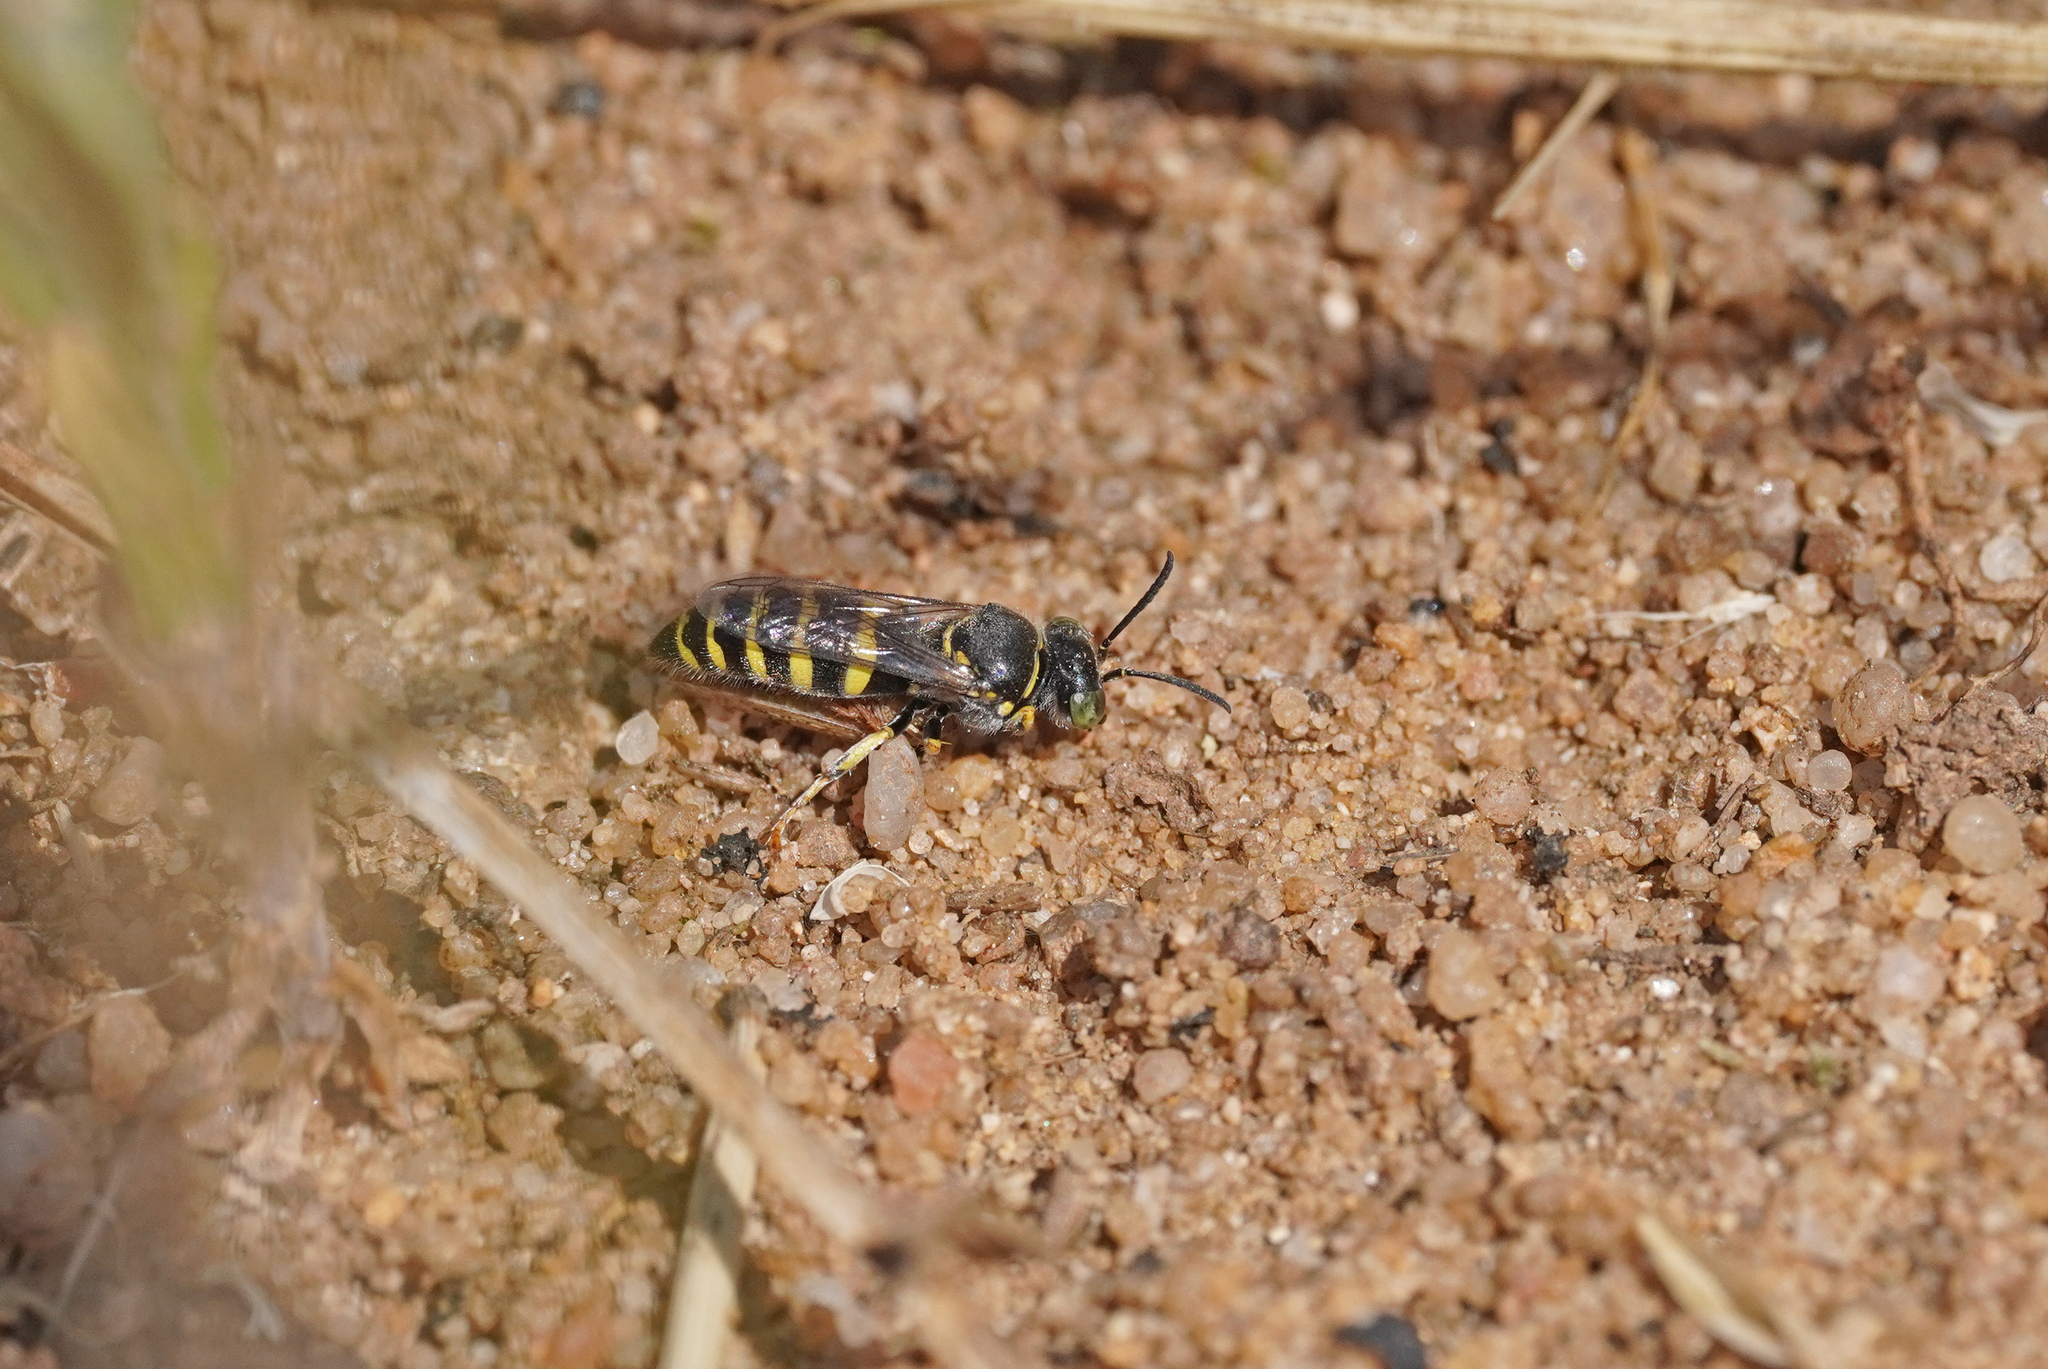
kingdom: Animalia
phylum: Arthropoda
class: Insecta
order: Hymenoptera
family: Crabronidae
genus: Bembecinus
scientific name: Bembecinus tridens
